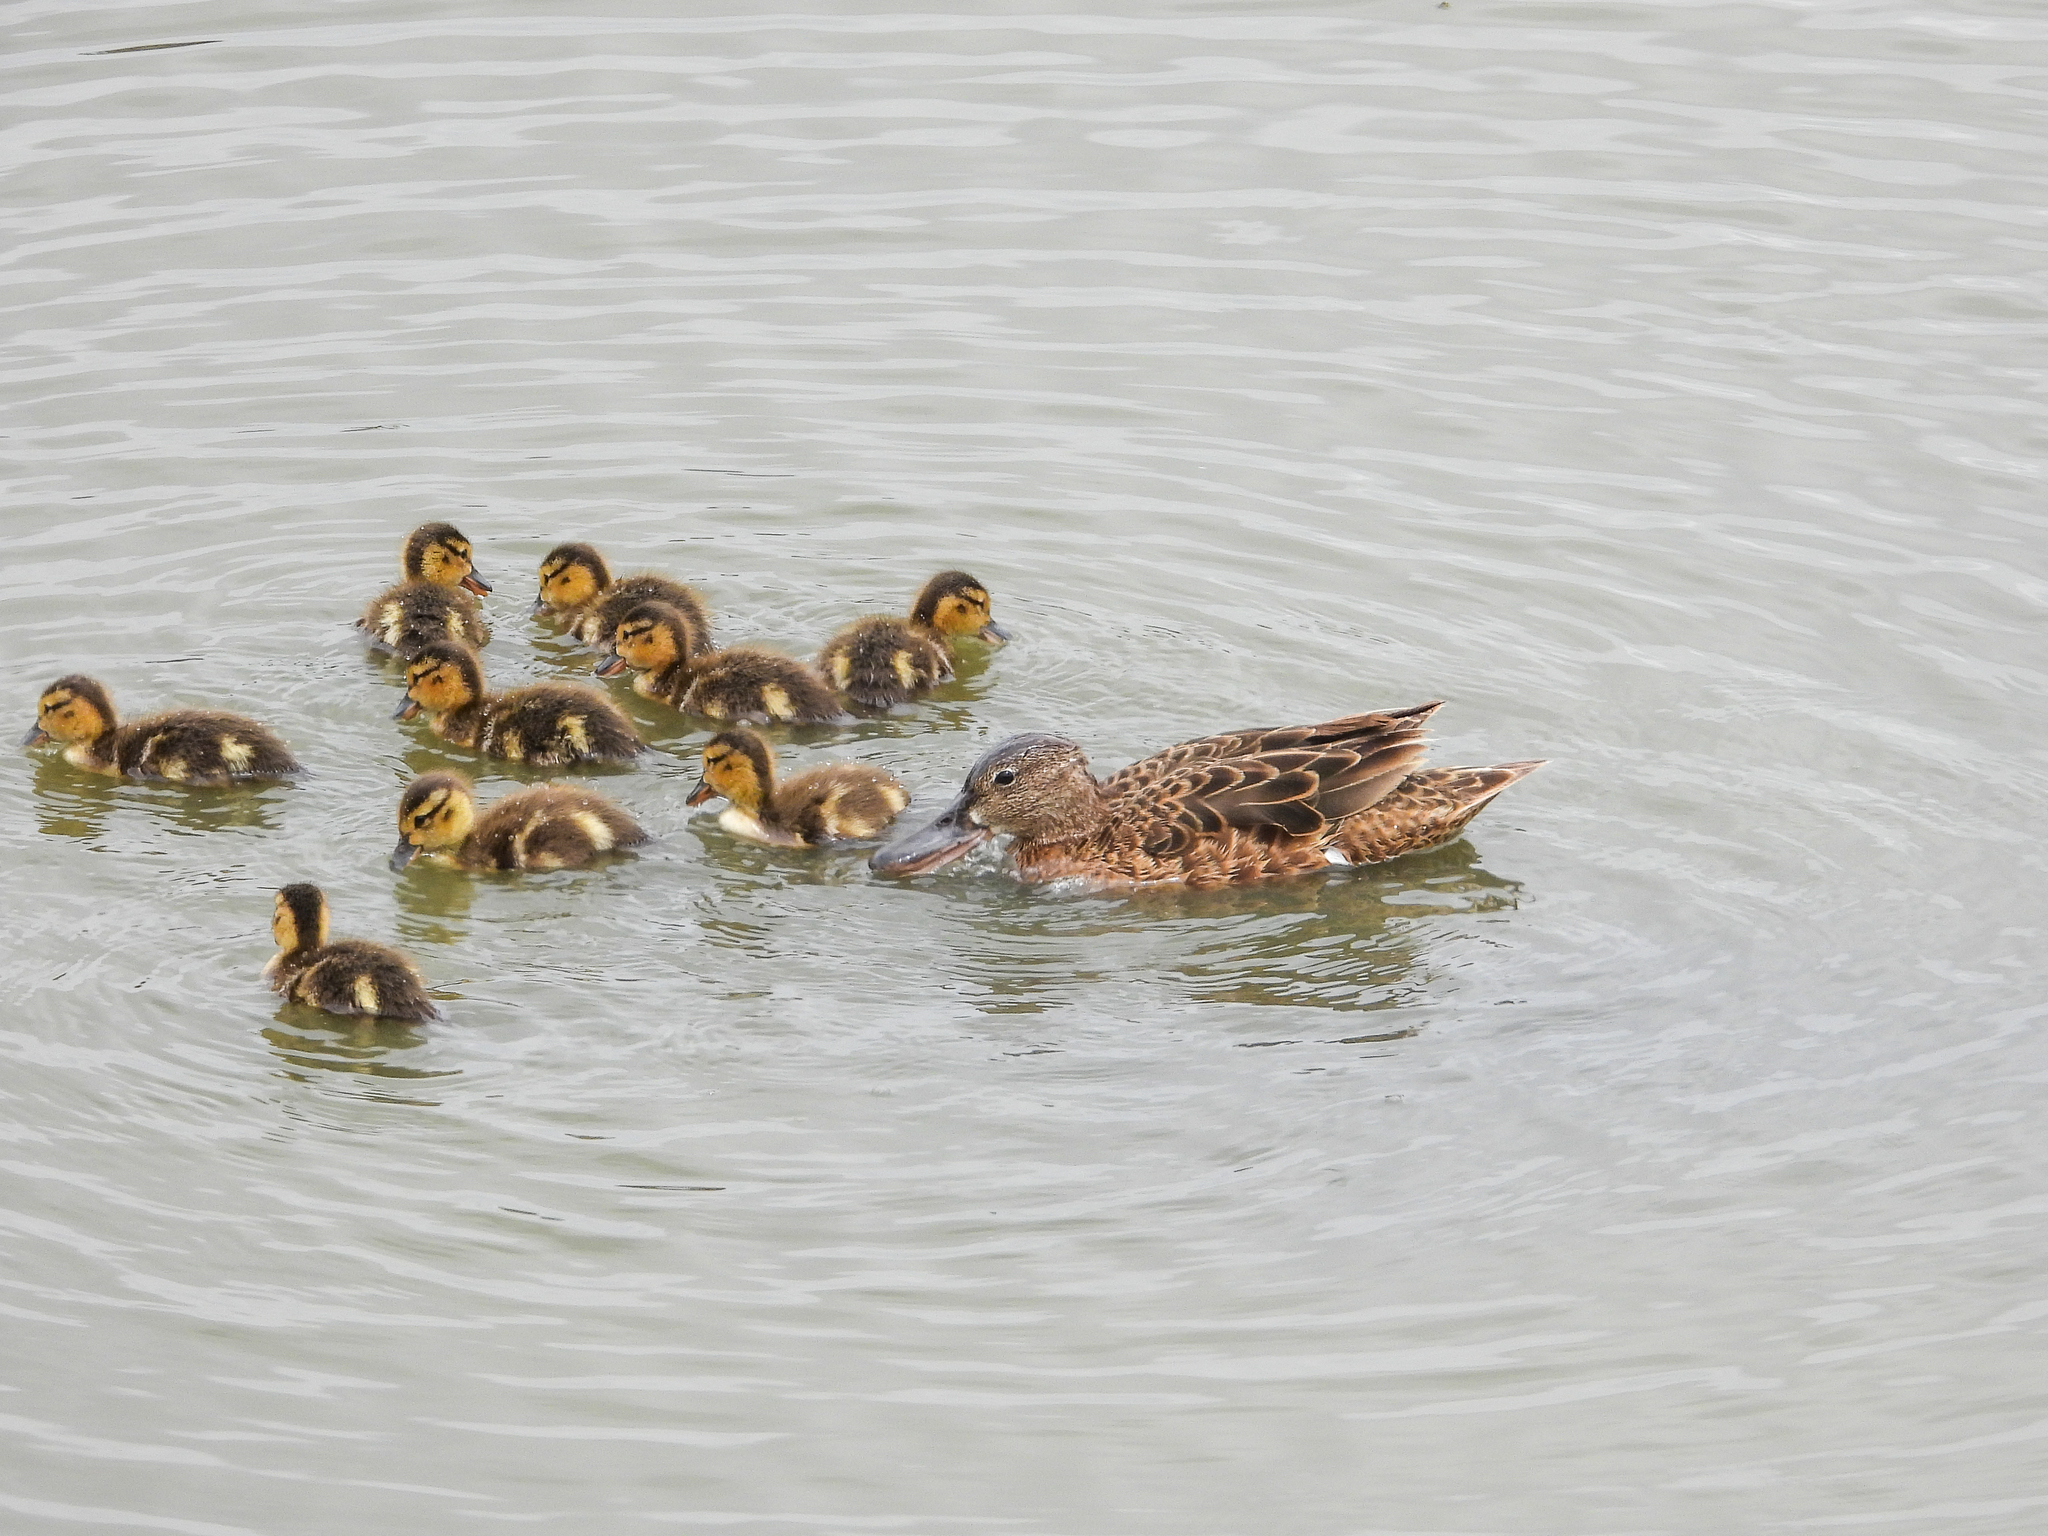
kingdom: Animalia
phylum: Chordata
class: Aves
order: Anseriformes
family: Anatidae
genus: Spatula
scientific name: Spatula cyanoptera
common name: Cinnamon teal
